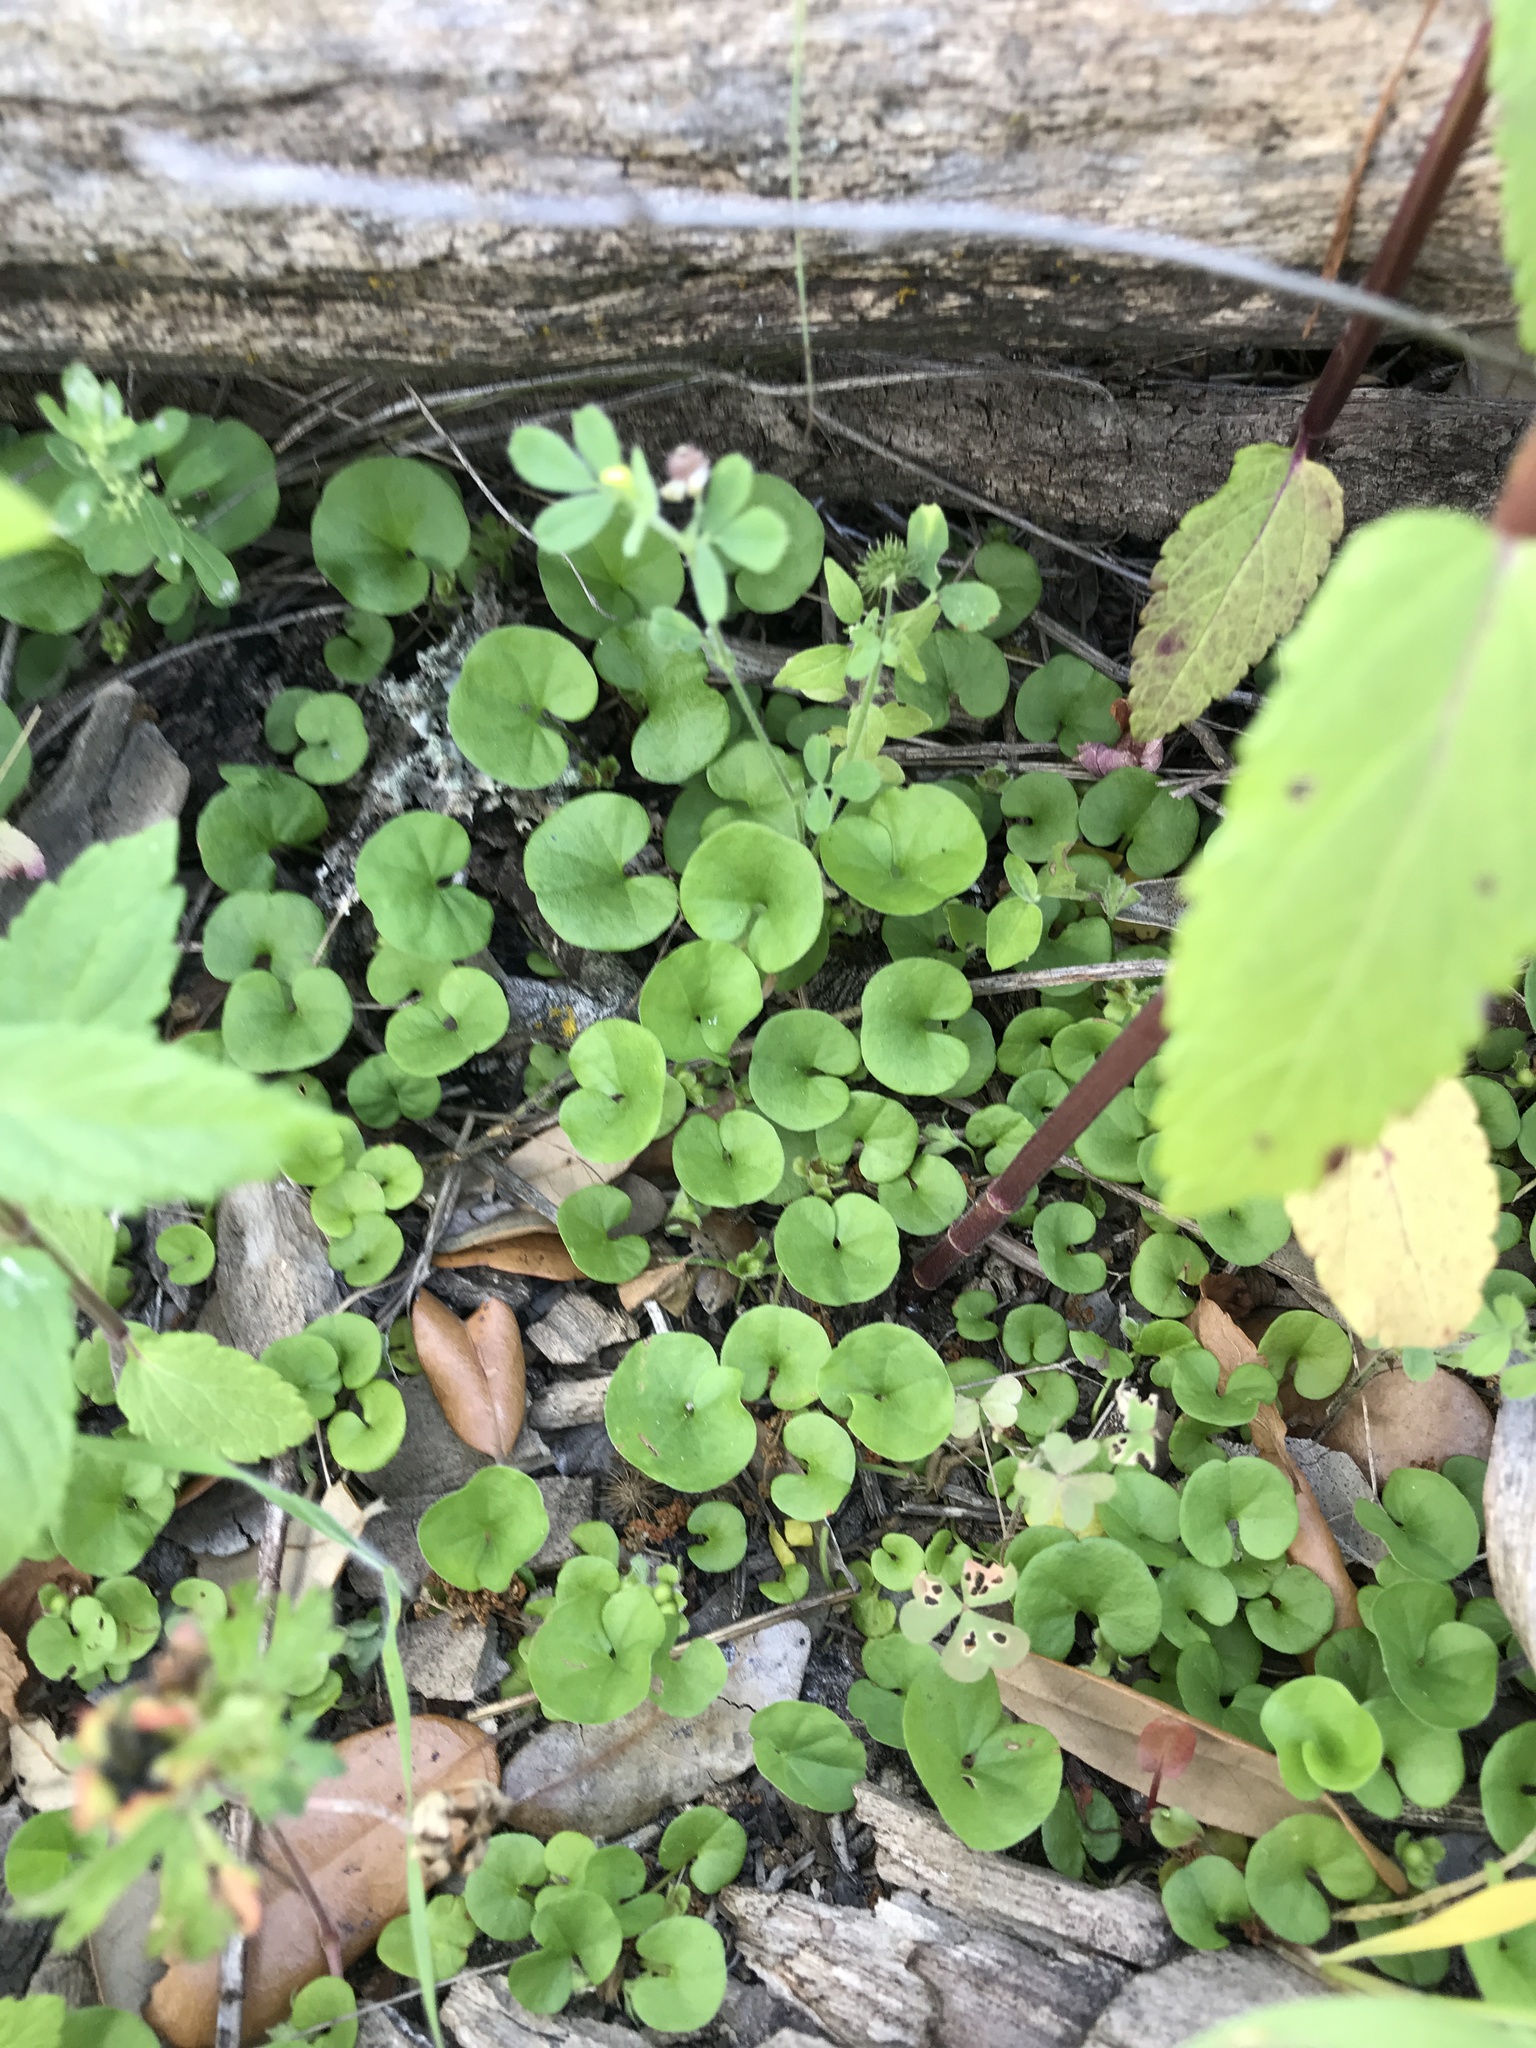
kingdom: Plantae
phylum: Tracheophyta
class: Magnoliopsida
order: Solanales
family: Convolvulaceae
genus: Dichondra
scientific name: Dichondra carolinensis
